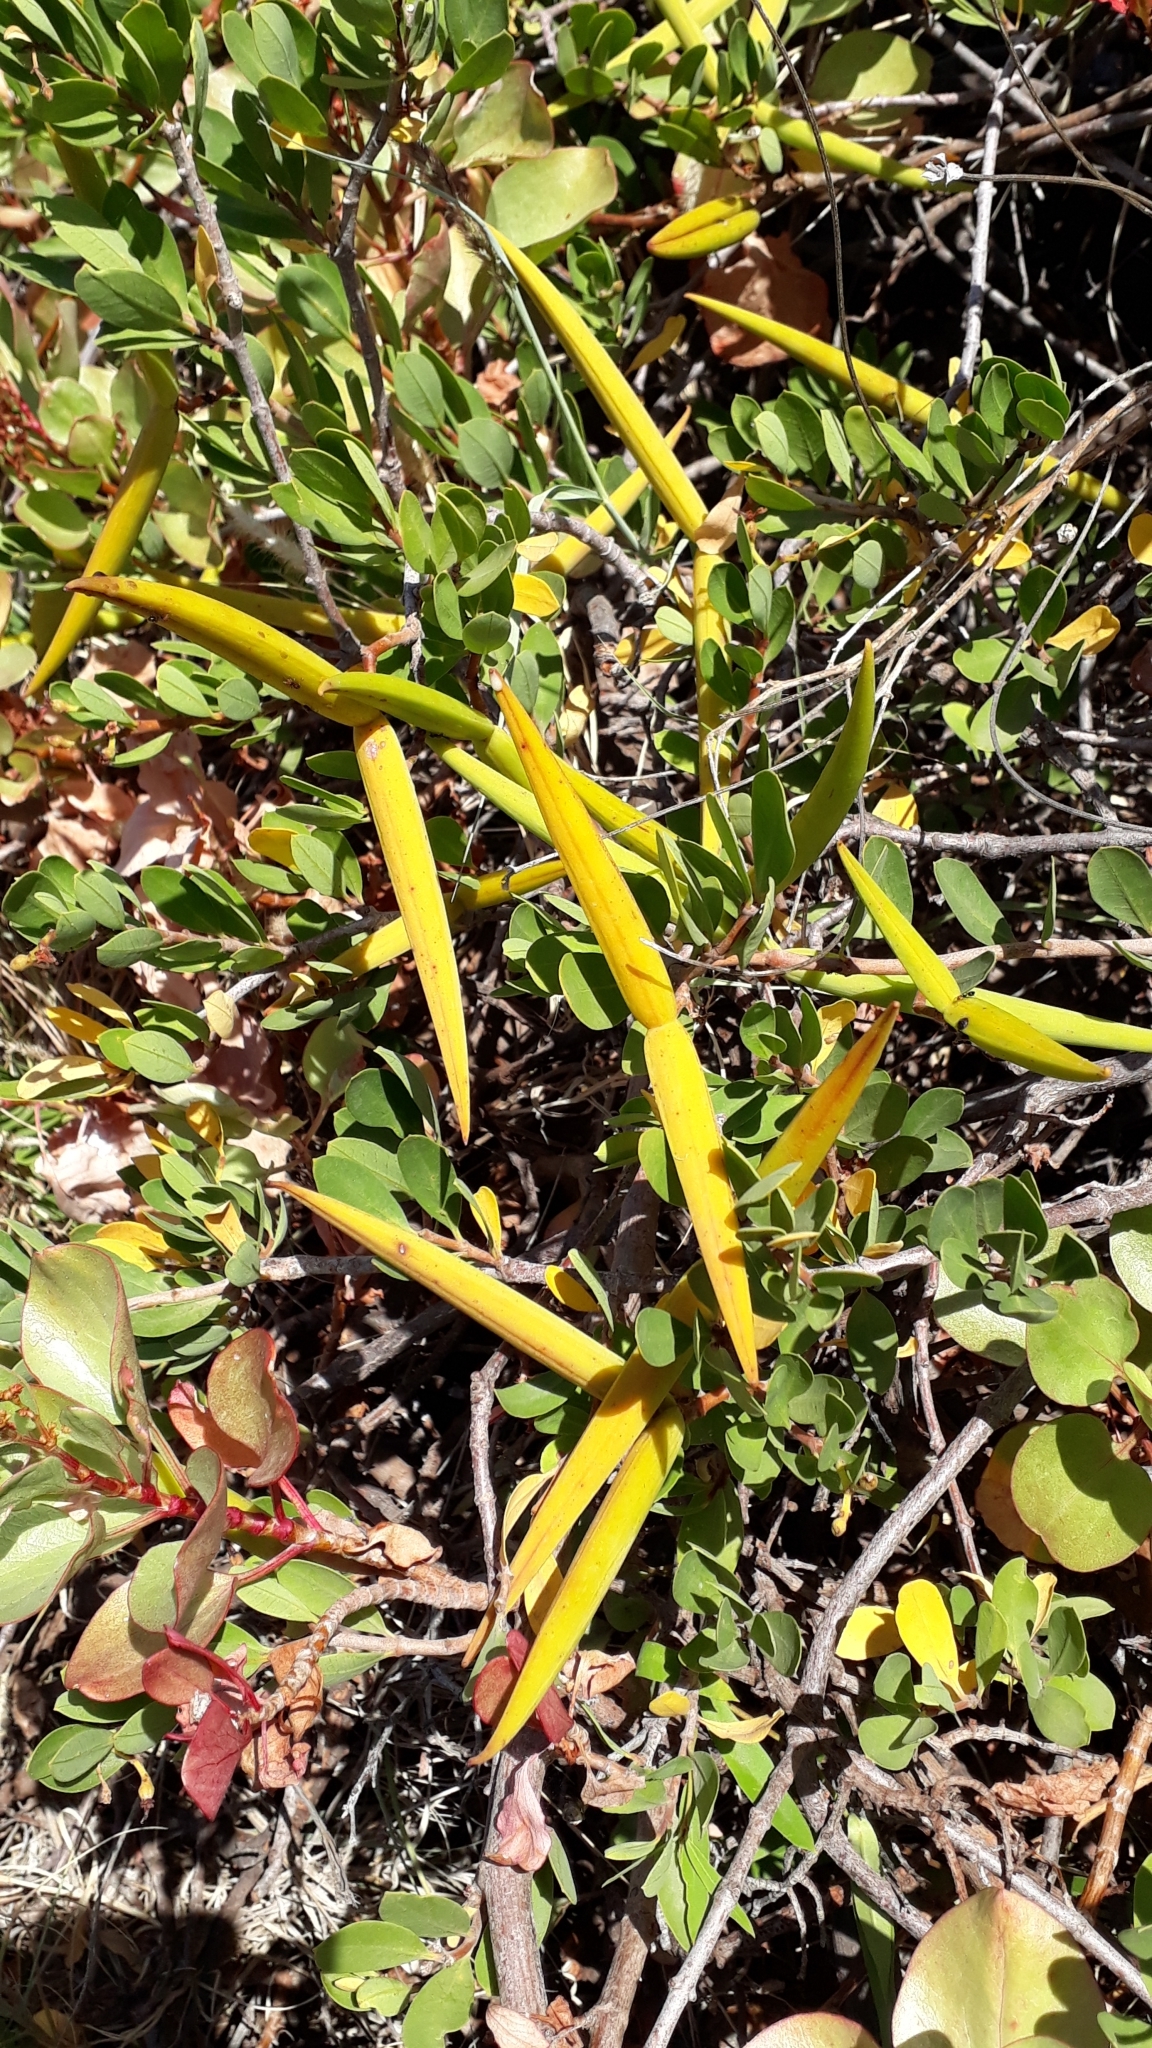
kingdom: Plantae
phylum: Tracheophyta
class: Magnoliopsida
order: Gentianales
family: Apocynaceae
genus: Periploca
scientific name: Periploca laevigata
